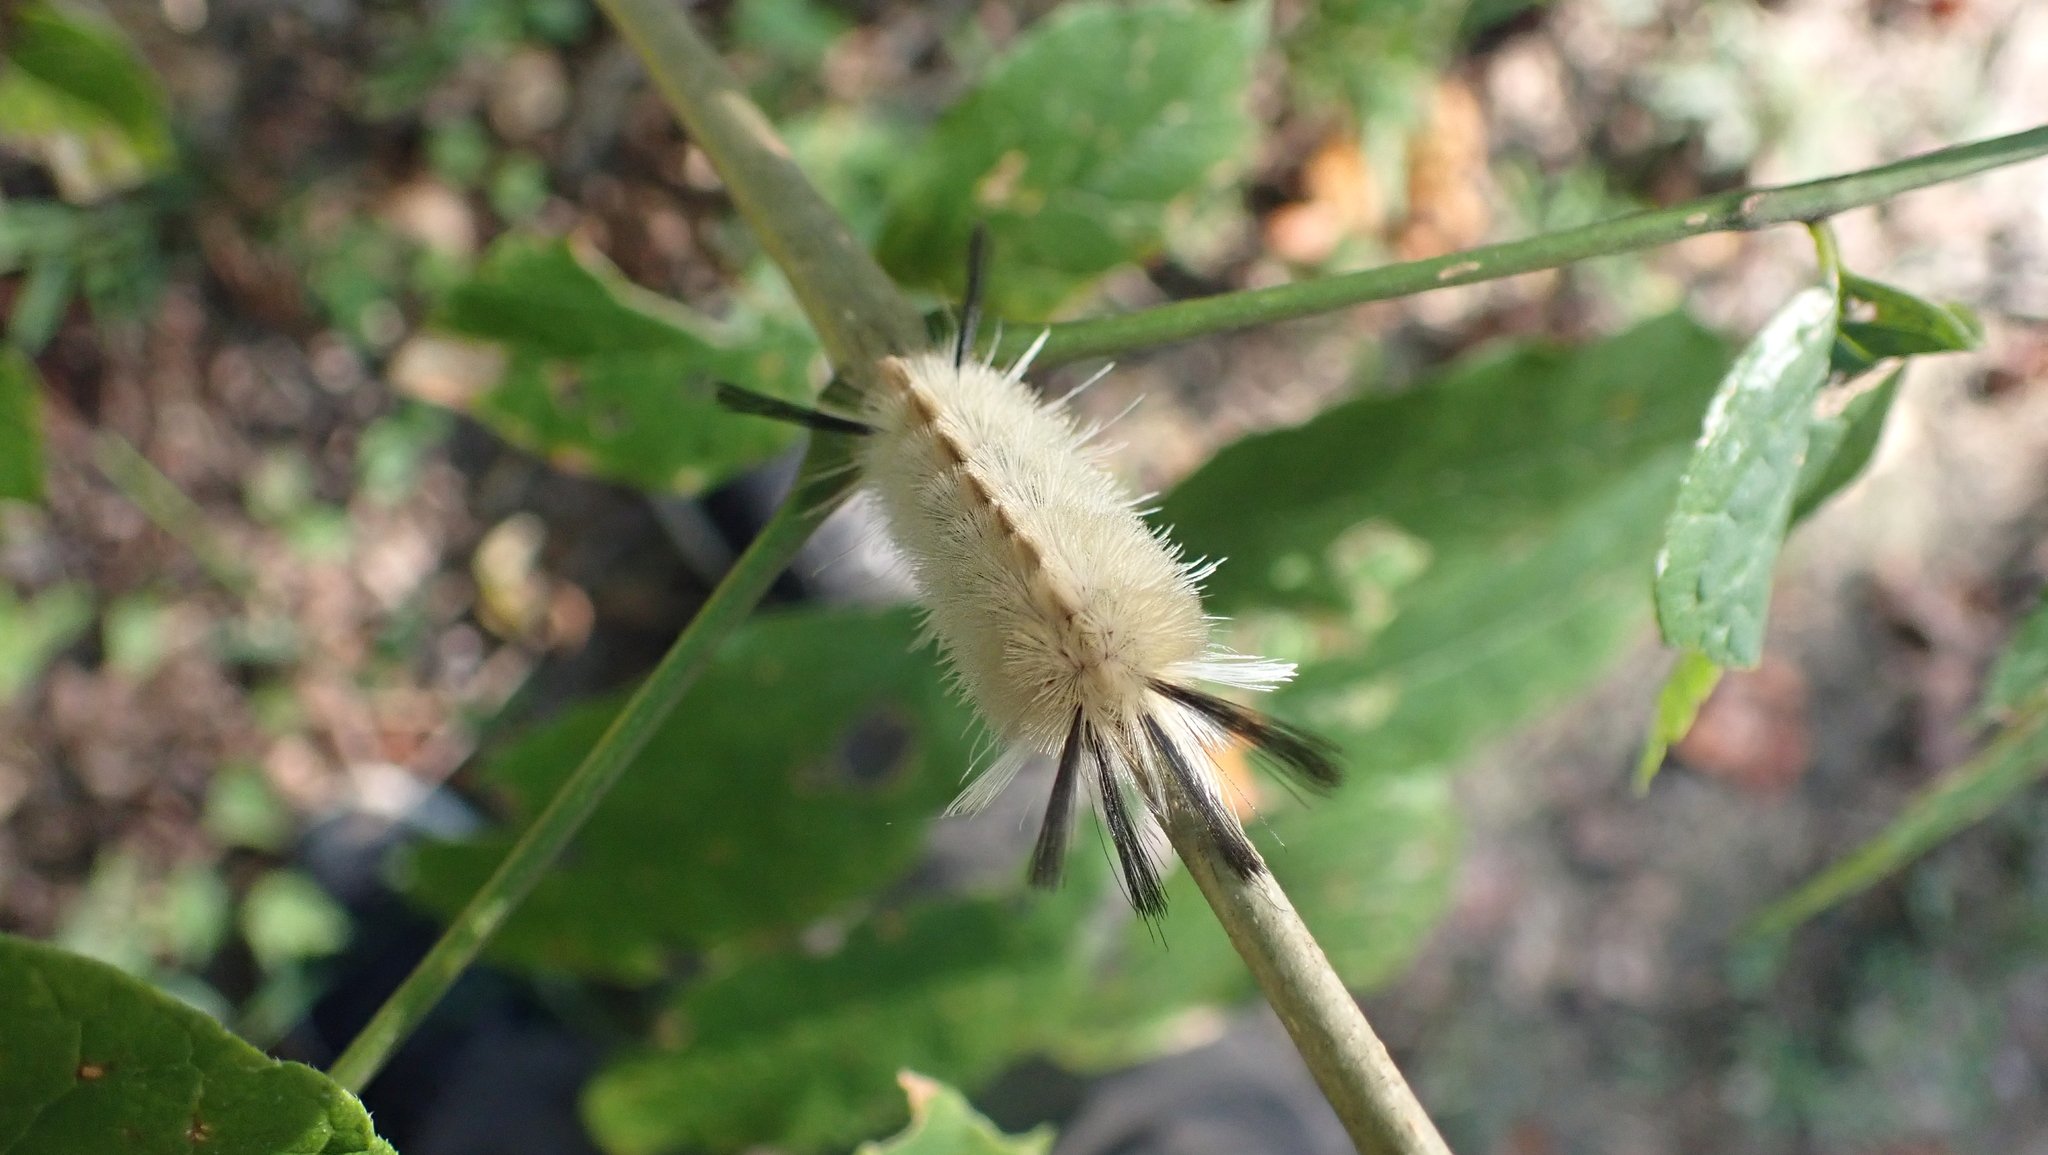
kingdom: Animalia
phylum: Arthropoda
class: Insecta
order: Lepidoptera
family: Erebidae
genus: Halysidota
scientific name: Halysidota tessellaris
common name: Banded tussock moth
